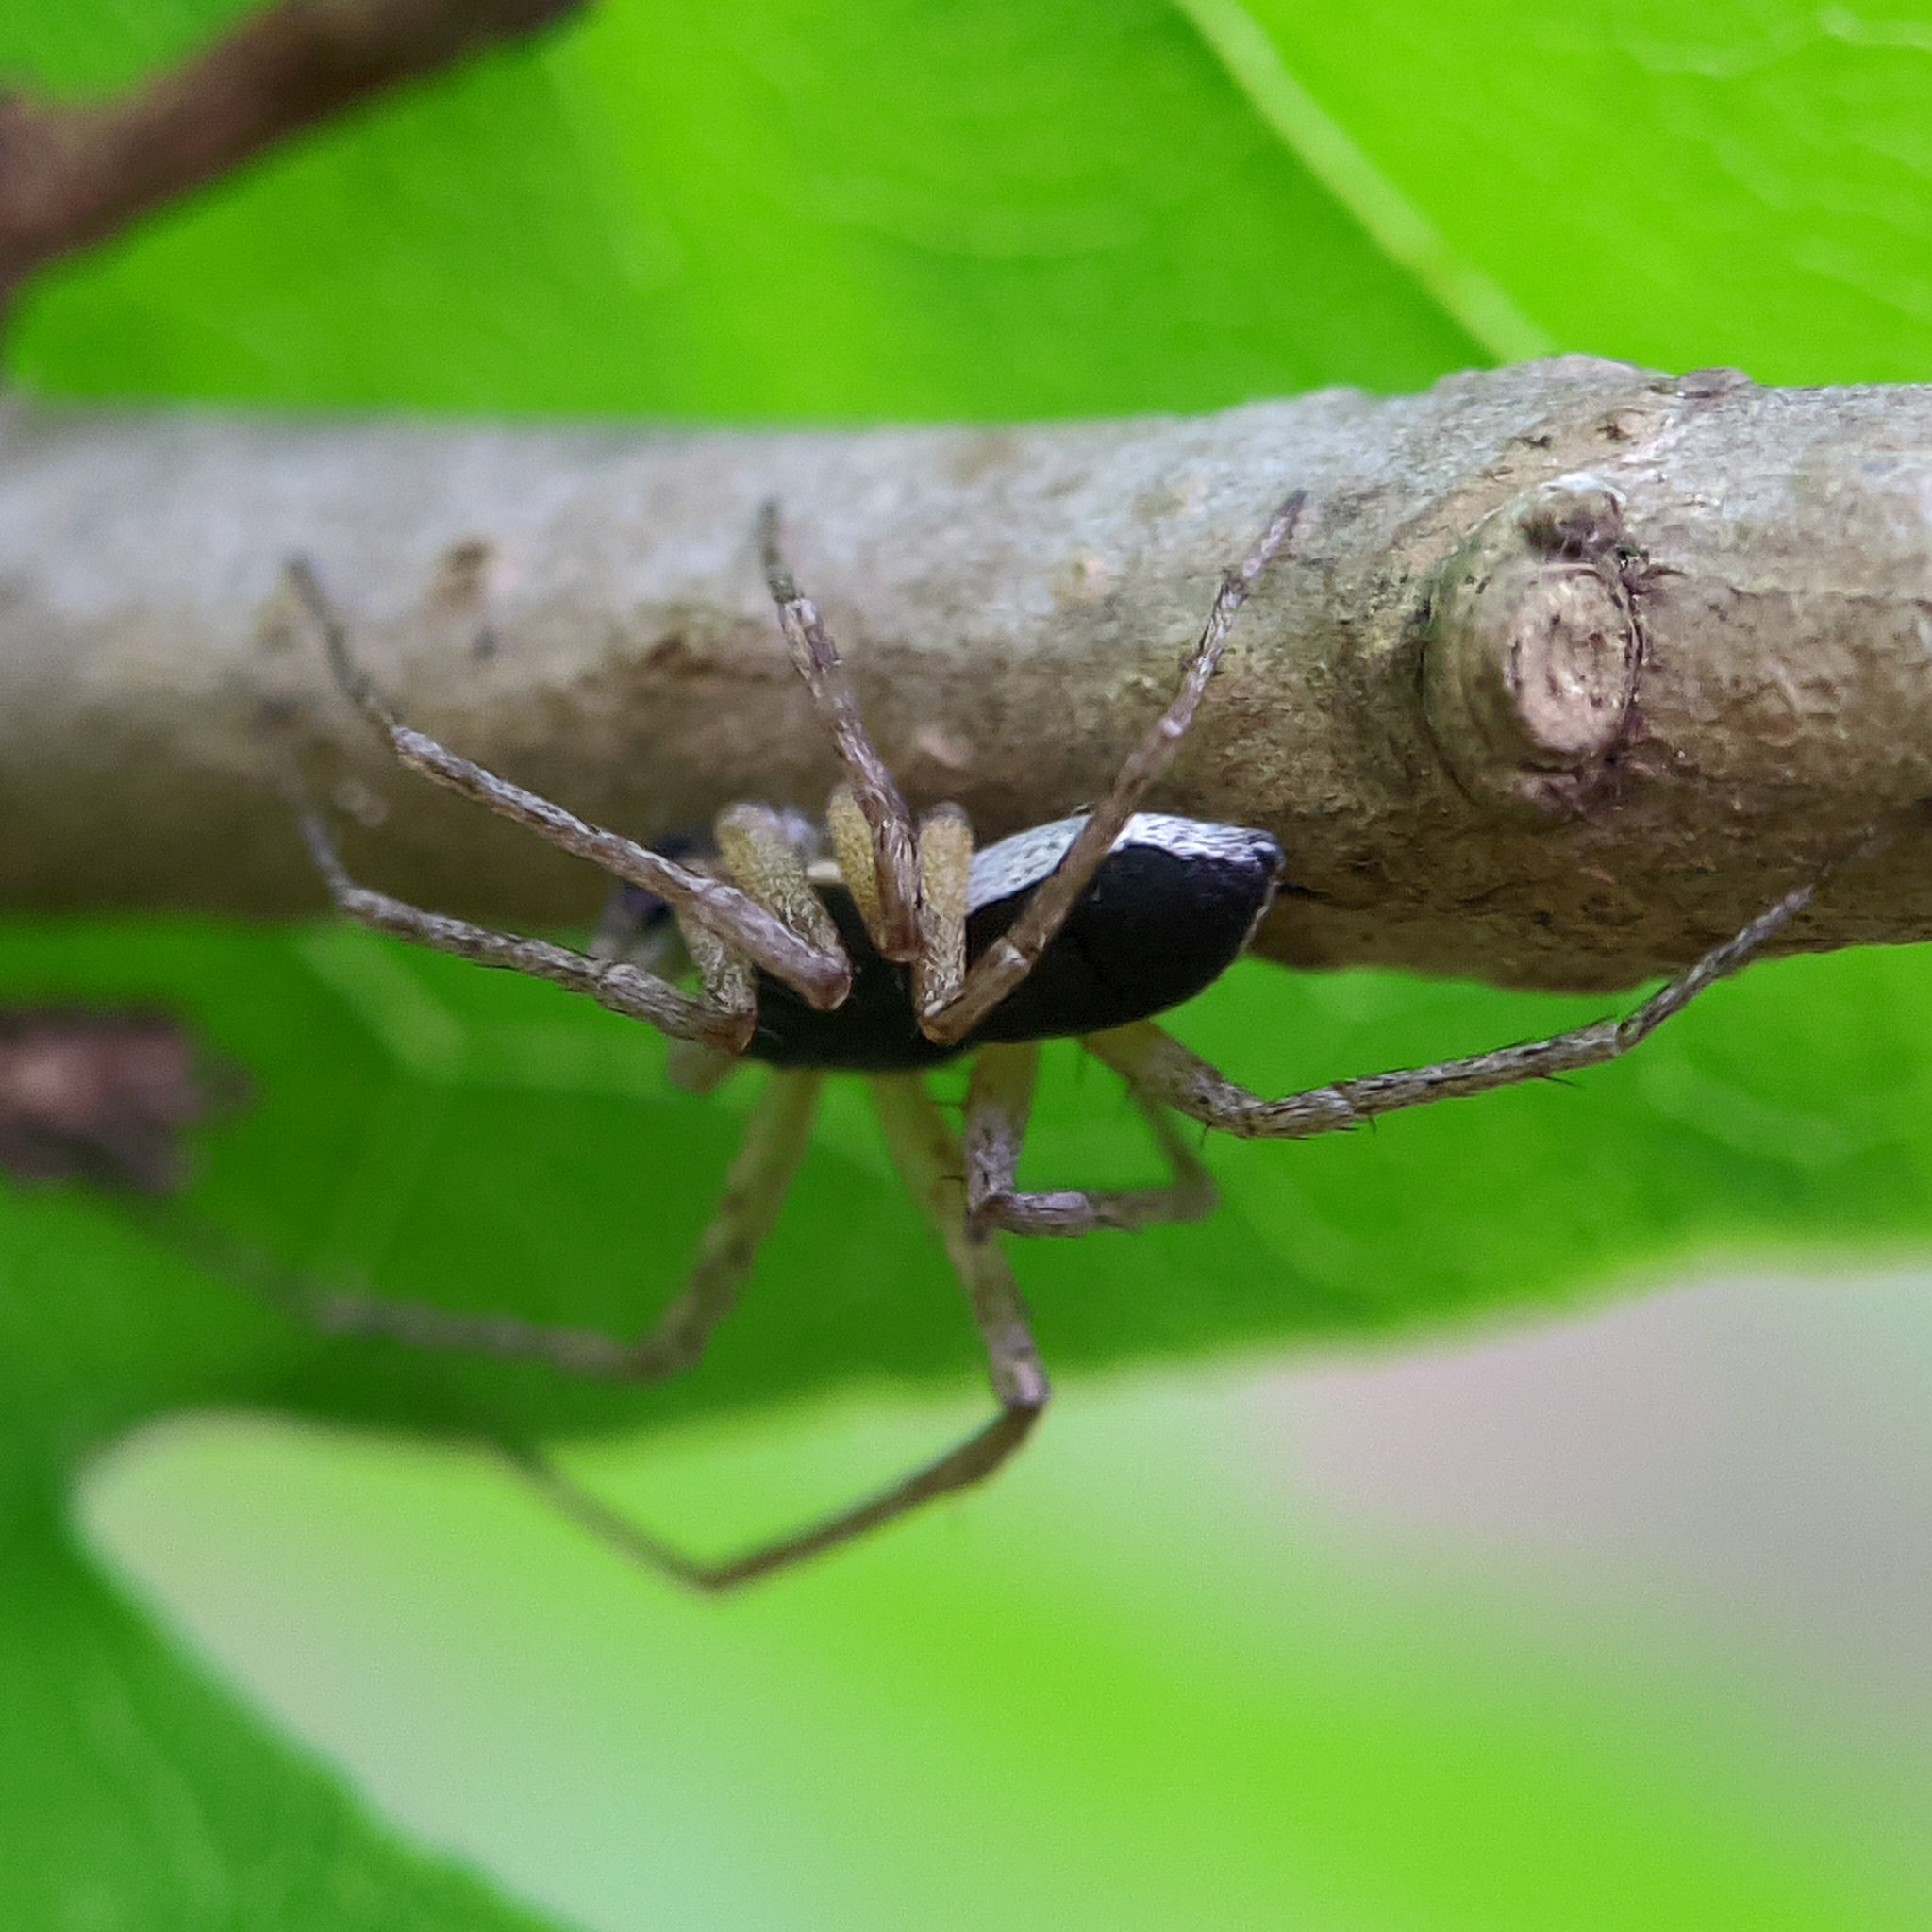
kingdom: Animalia
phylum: Arthropoda
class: Arachnida
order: Araneae
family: Philodromidae
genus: Philodromus
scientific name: Philodromus dispar
